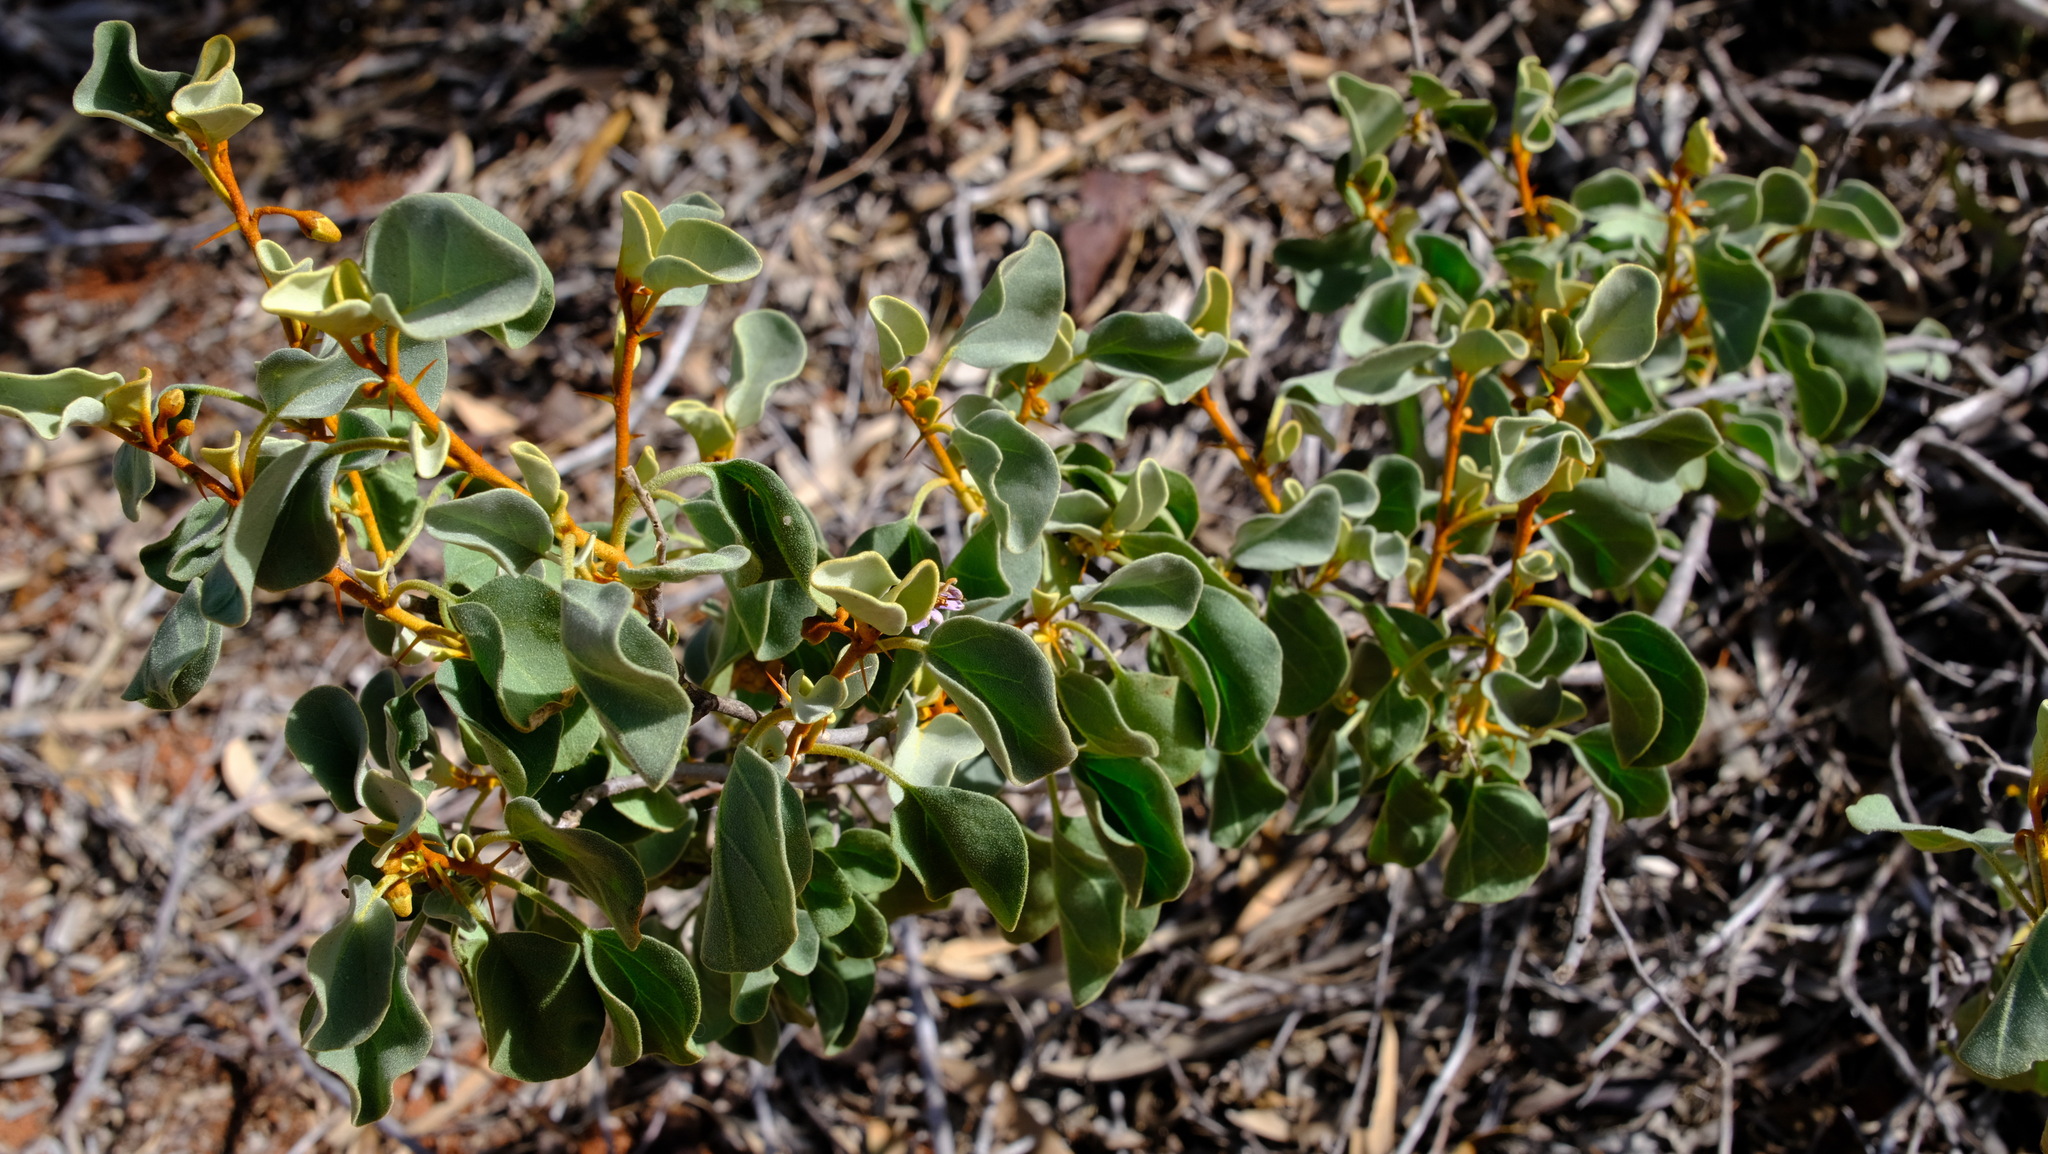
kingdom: Plantae
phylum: Tracheophyta
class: Magnoliopsida
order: Solanales
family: Solanaceae
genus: Solanum
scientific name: Solanum orbiculatum
